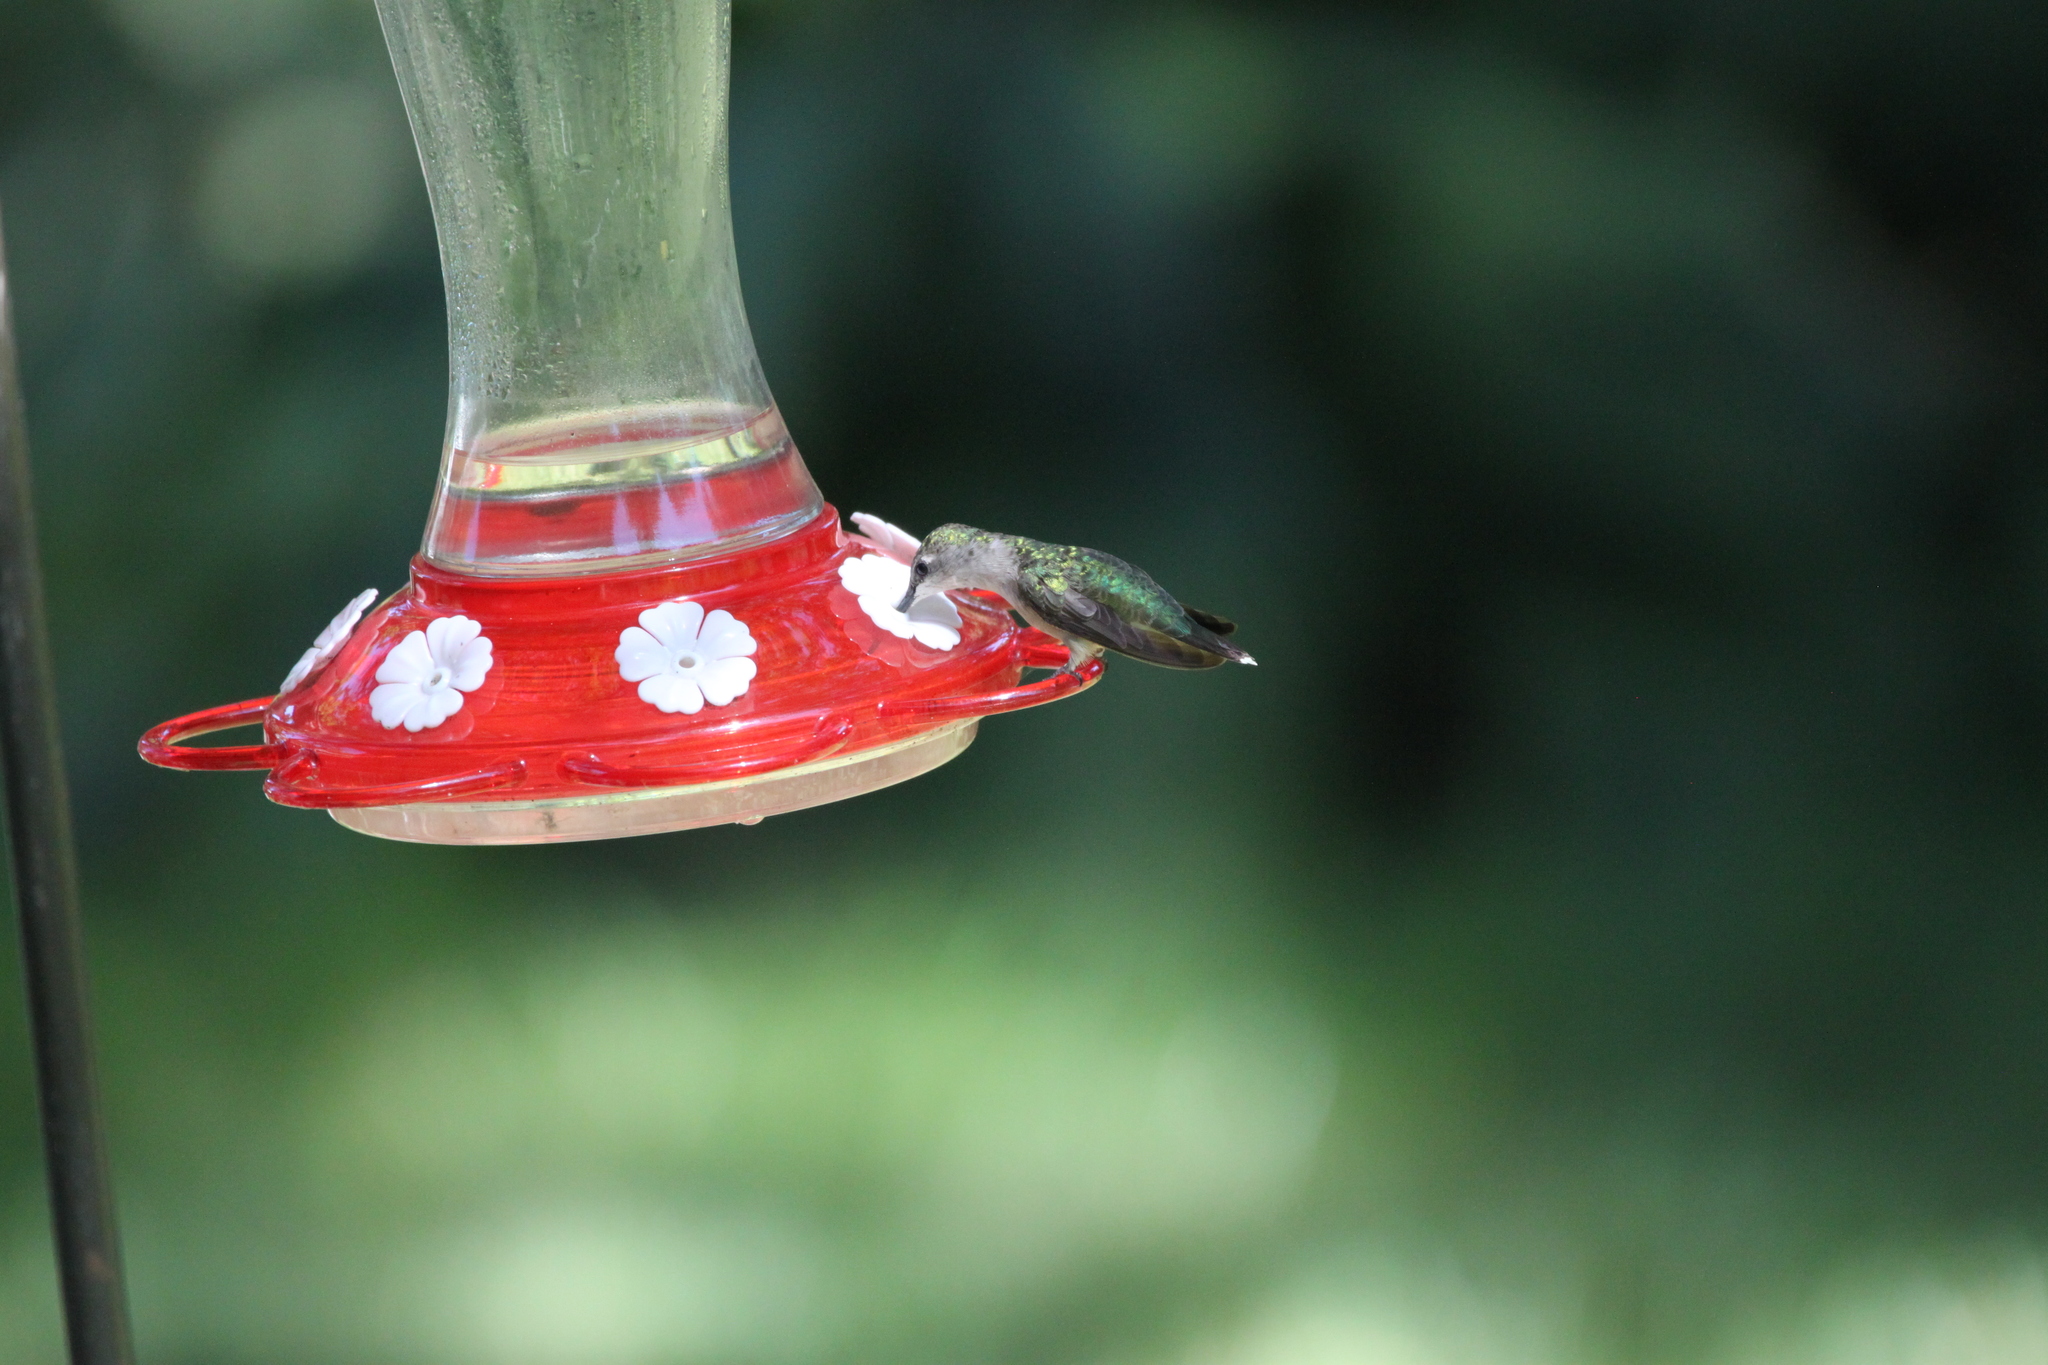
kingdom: Animalia
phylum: Chordata
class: Aves
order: Apodiformes
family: Trochilidae
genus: Archilochus
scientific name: Archilochus colubris
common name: Ruby-throated hummingbird
